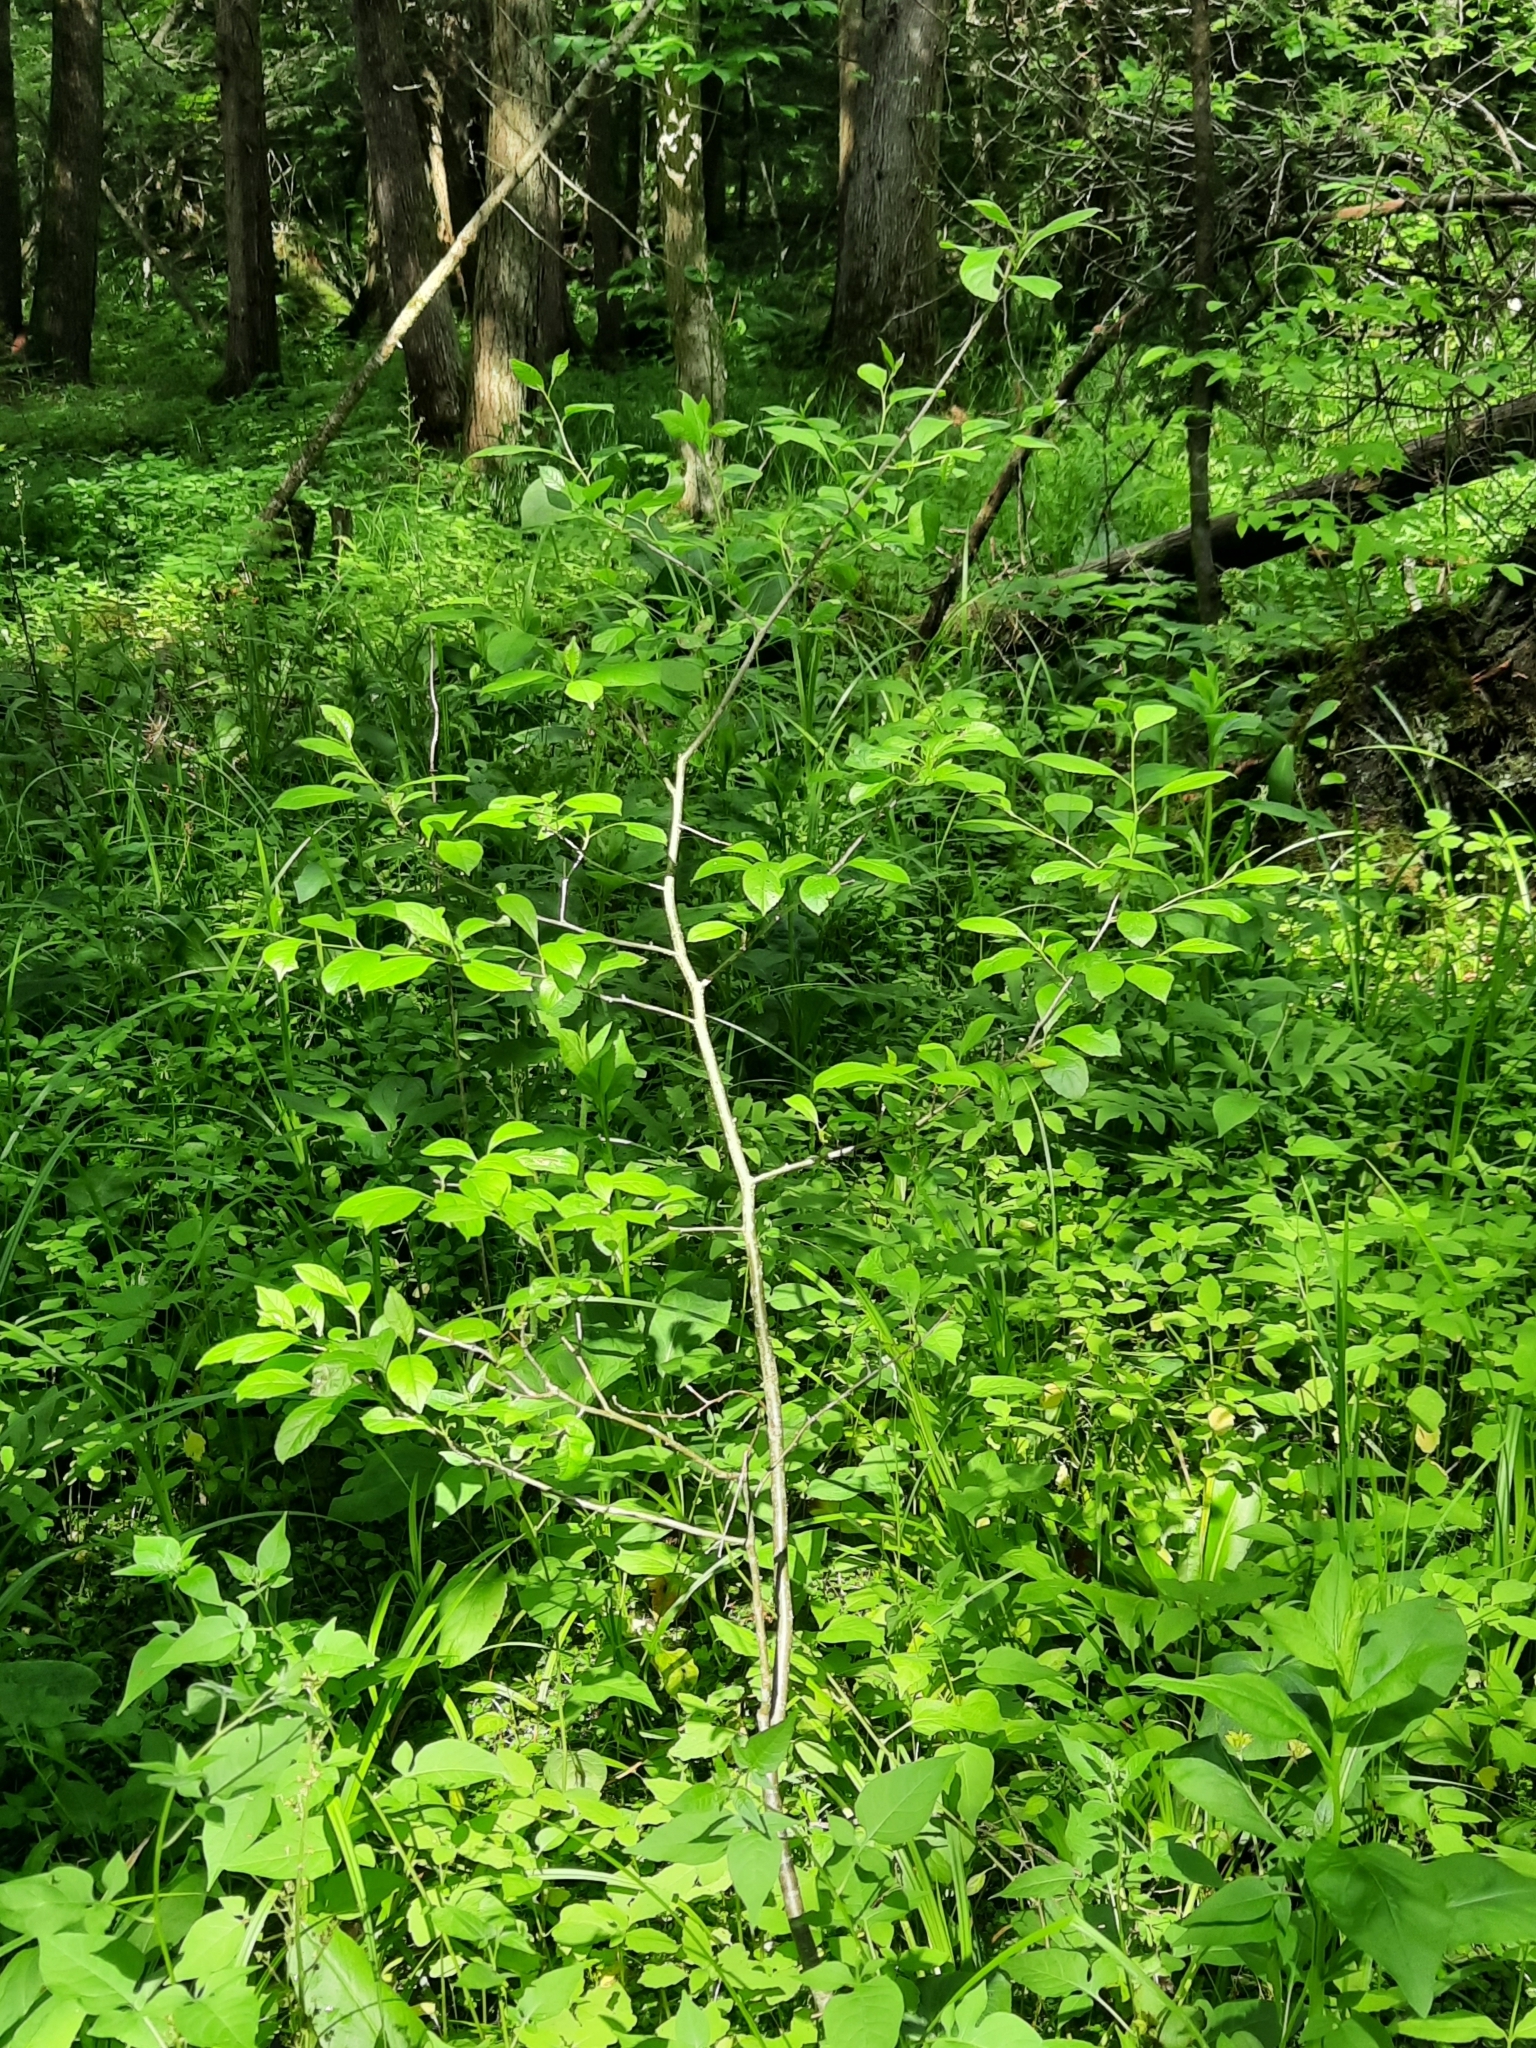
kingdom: Plantae
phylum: Tracheophyta
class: Magnoliopsida
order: Aquifoliales
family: Aquifoliaceae
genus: Ilex
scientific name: Ilex verticillata
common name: Virginia winterberry
